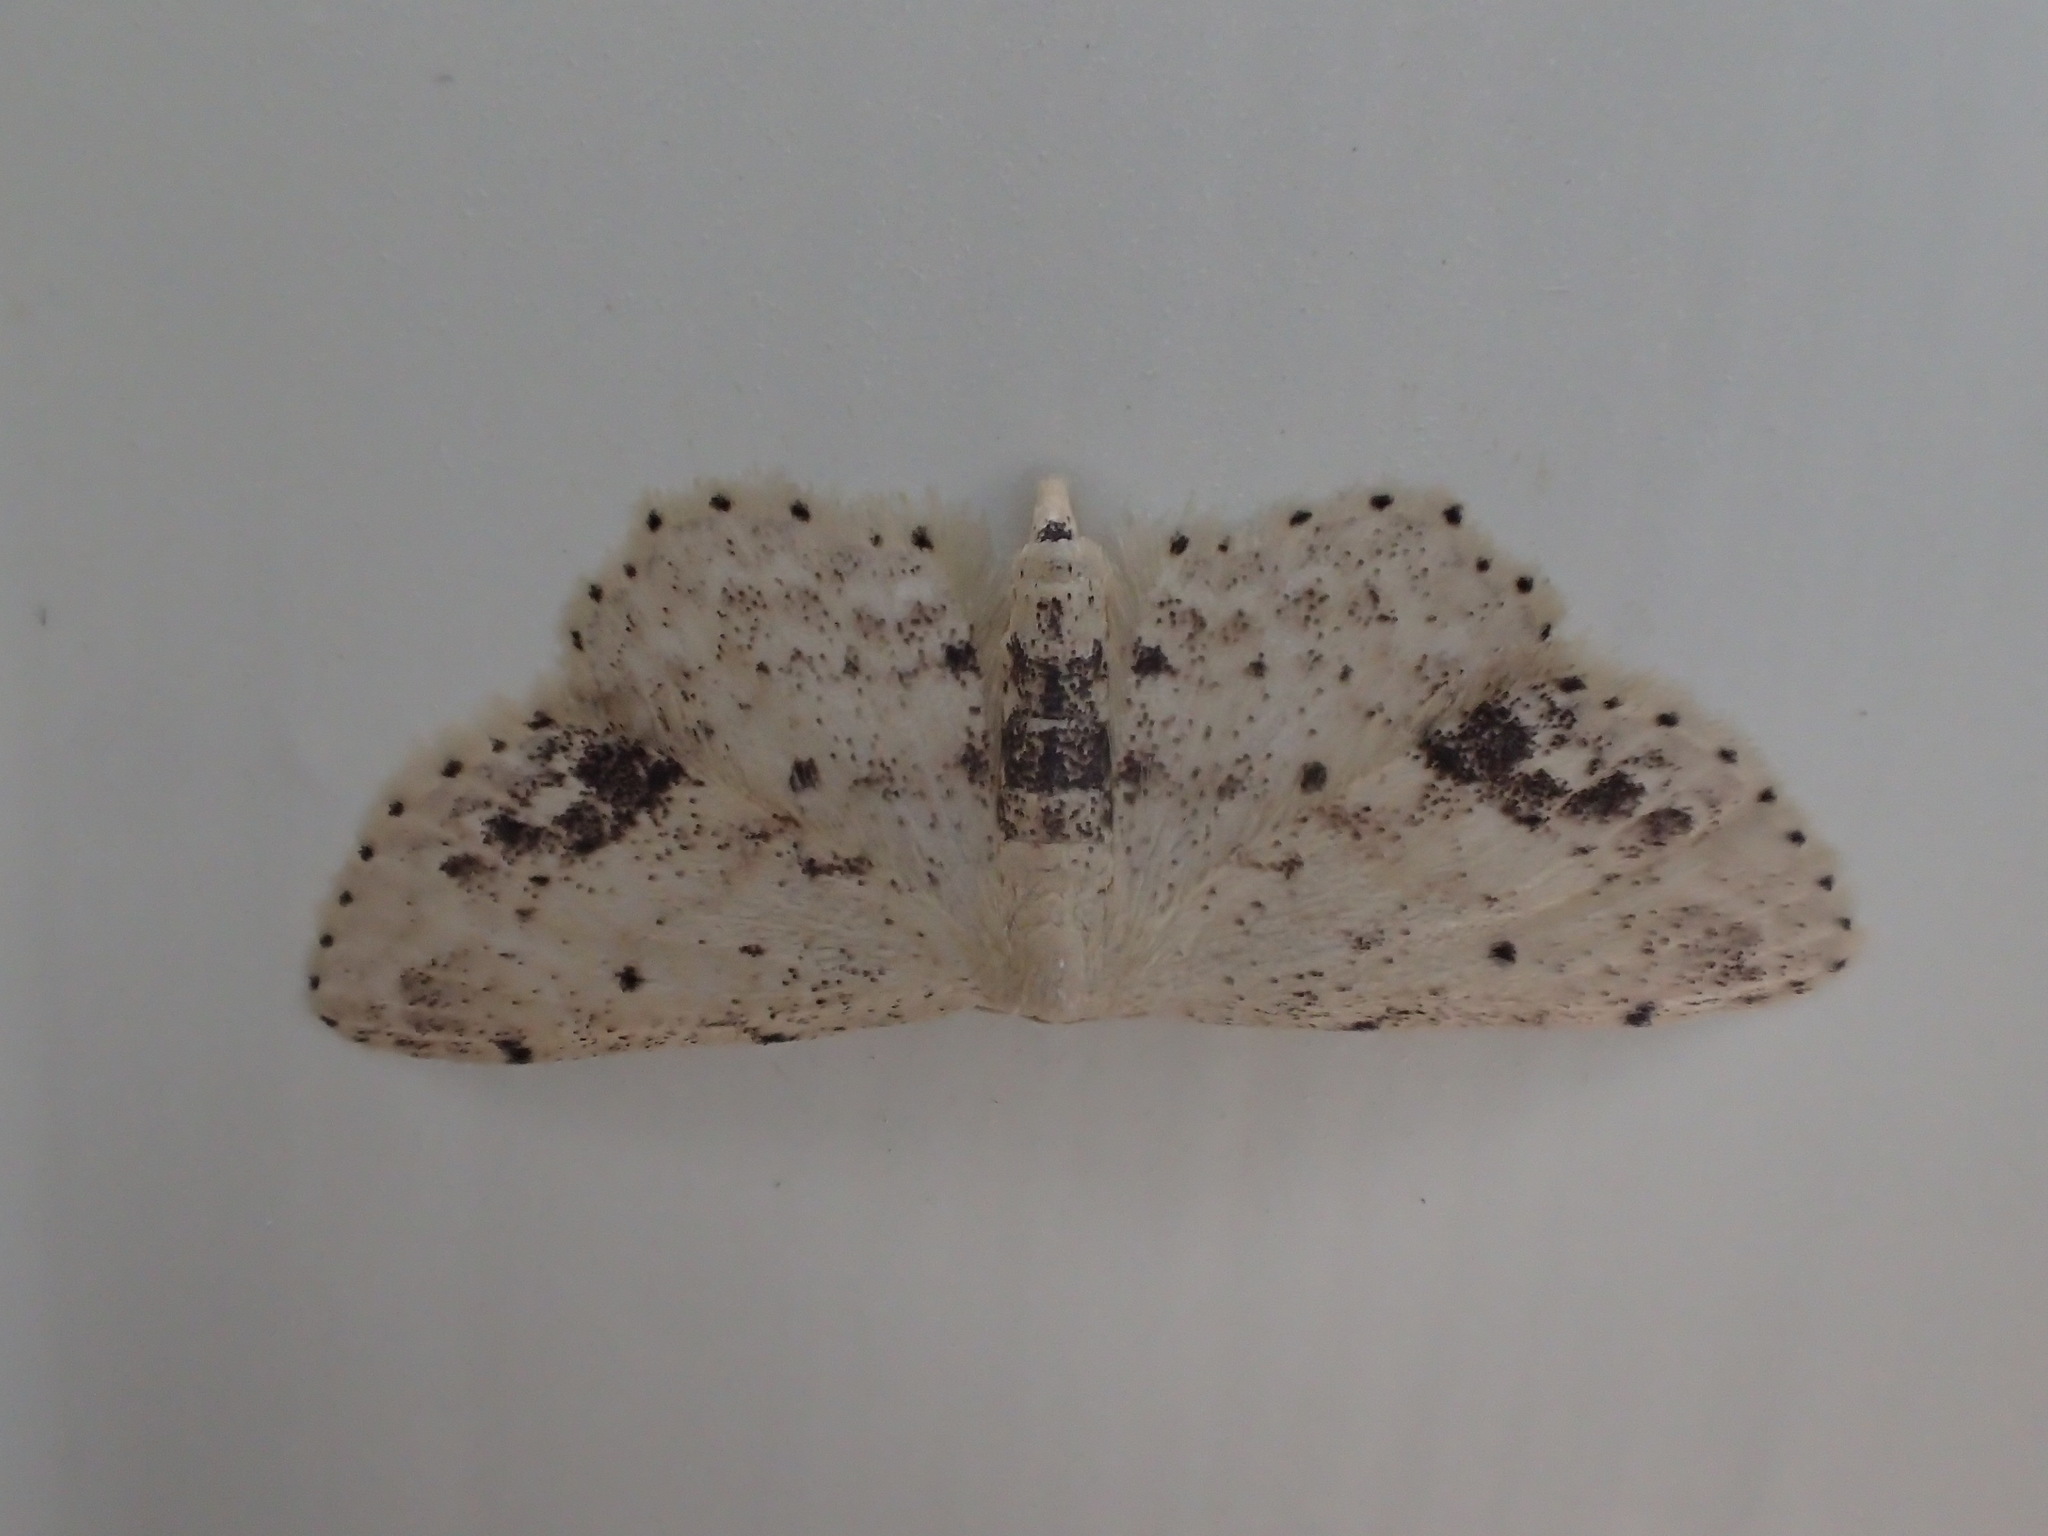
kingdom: Animalia
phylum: Arthropoda
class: Insecta
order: Lepidoptera
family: Geometridae
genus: Idaea
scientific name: Idaea dimidiata
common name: Single-dotted wave
